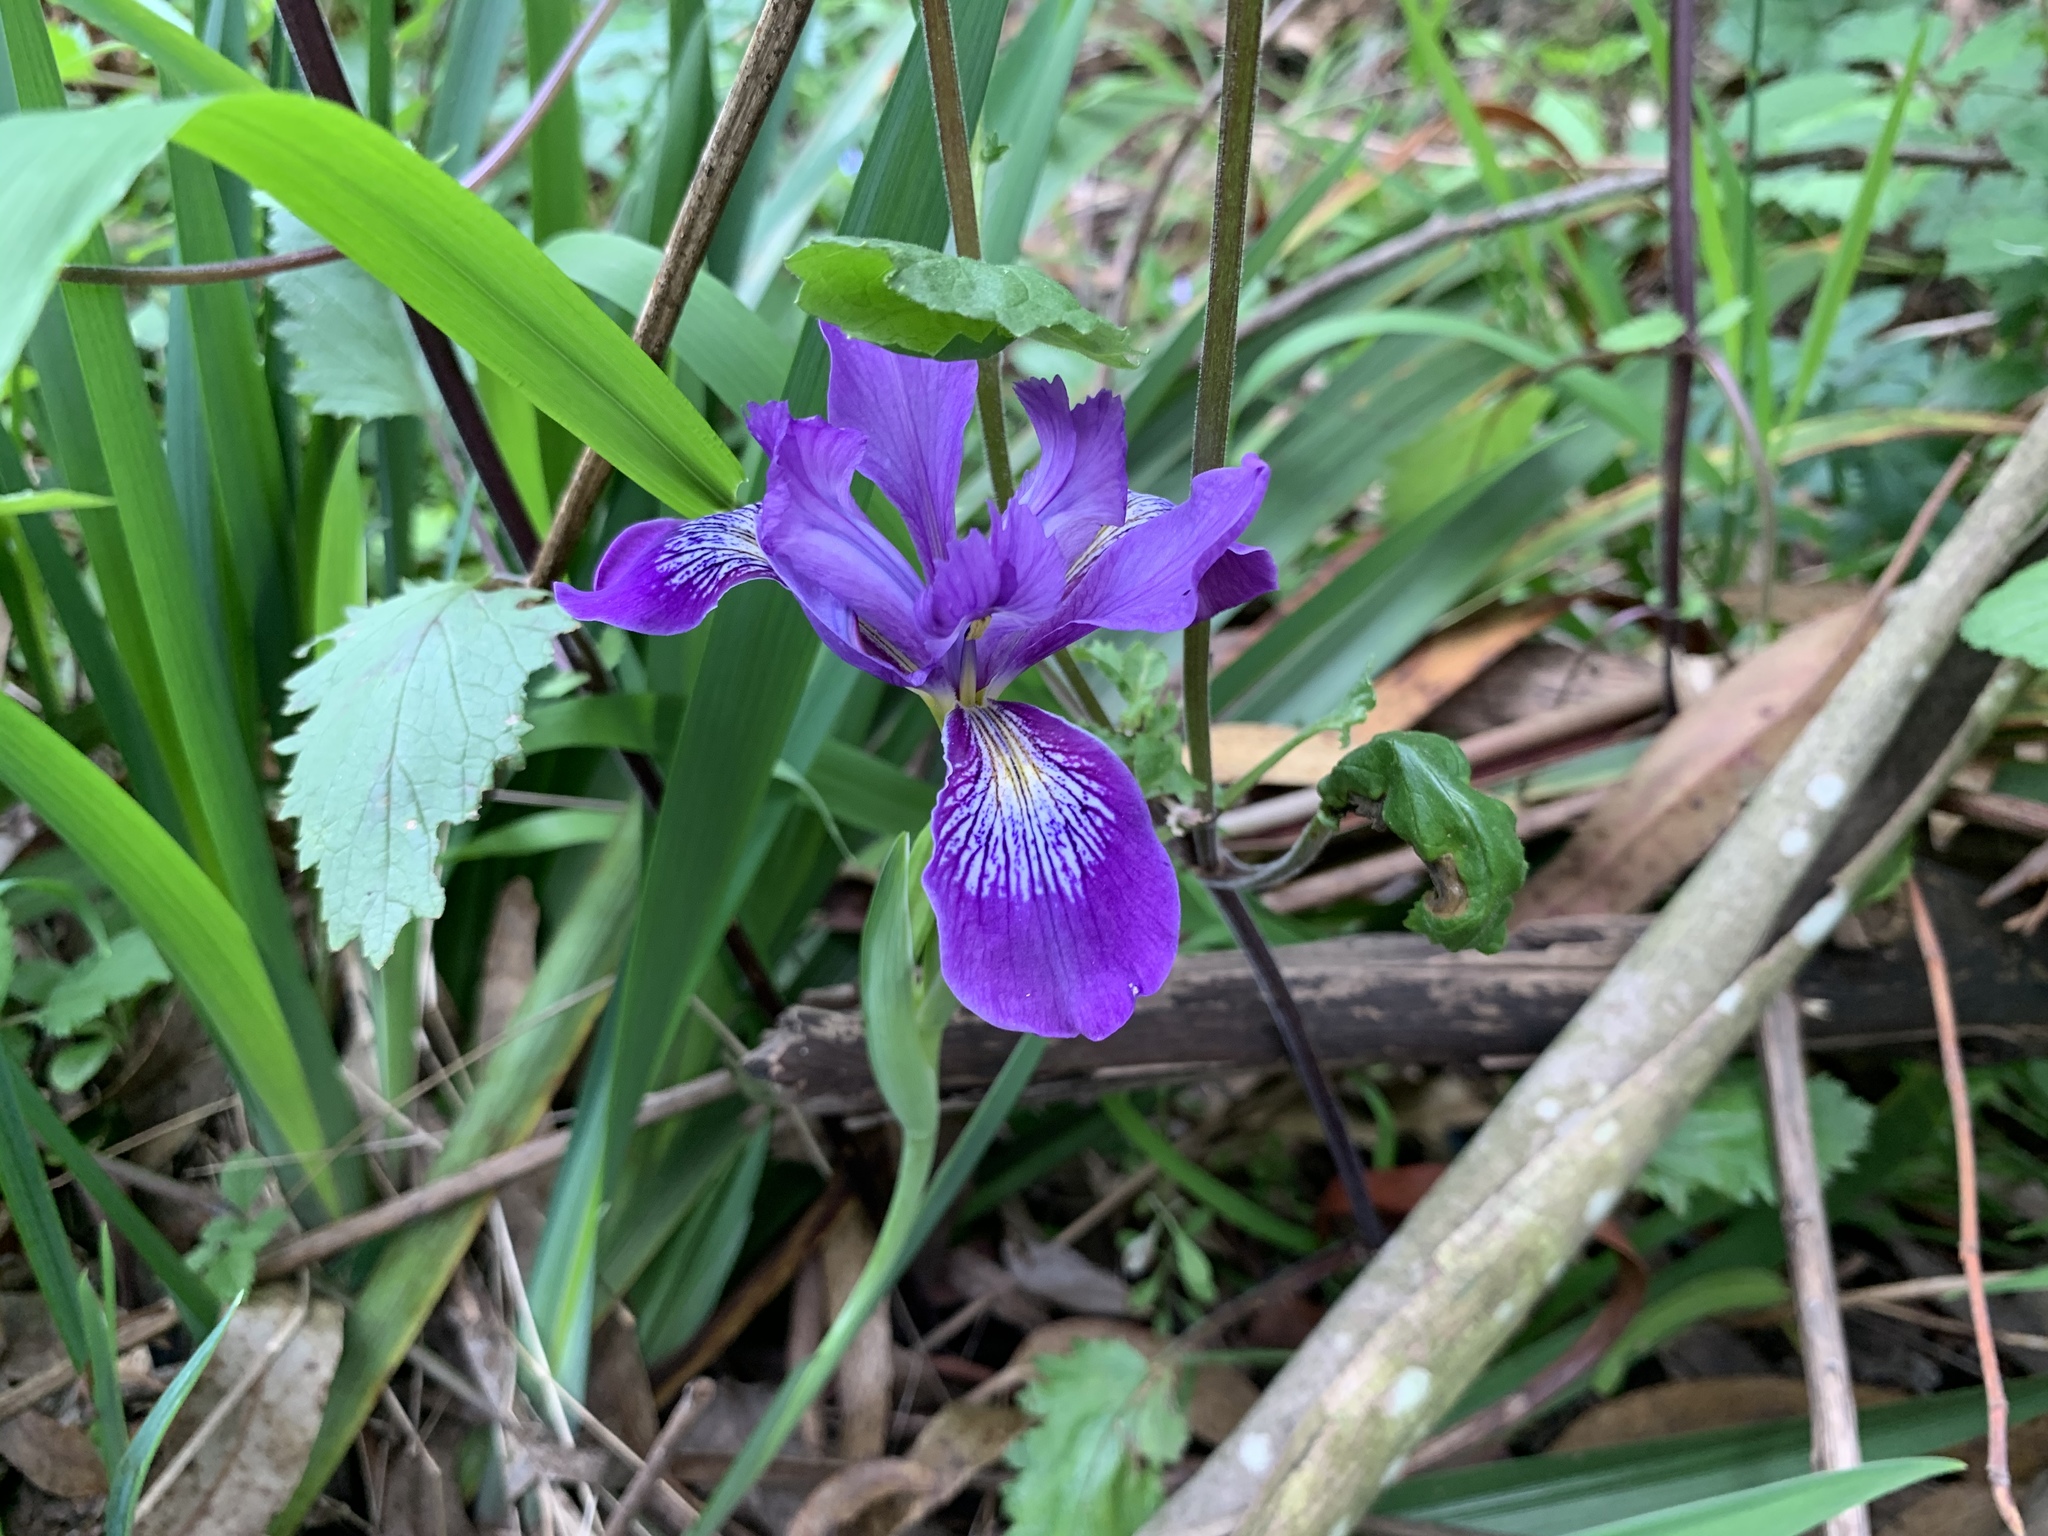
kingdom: Plantae
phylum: Tracheophyta
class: Liliopsida
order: Asparagales
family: Iridaceae
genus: Iris
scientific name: Iris douglasiana
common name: Marin iris
